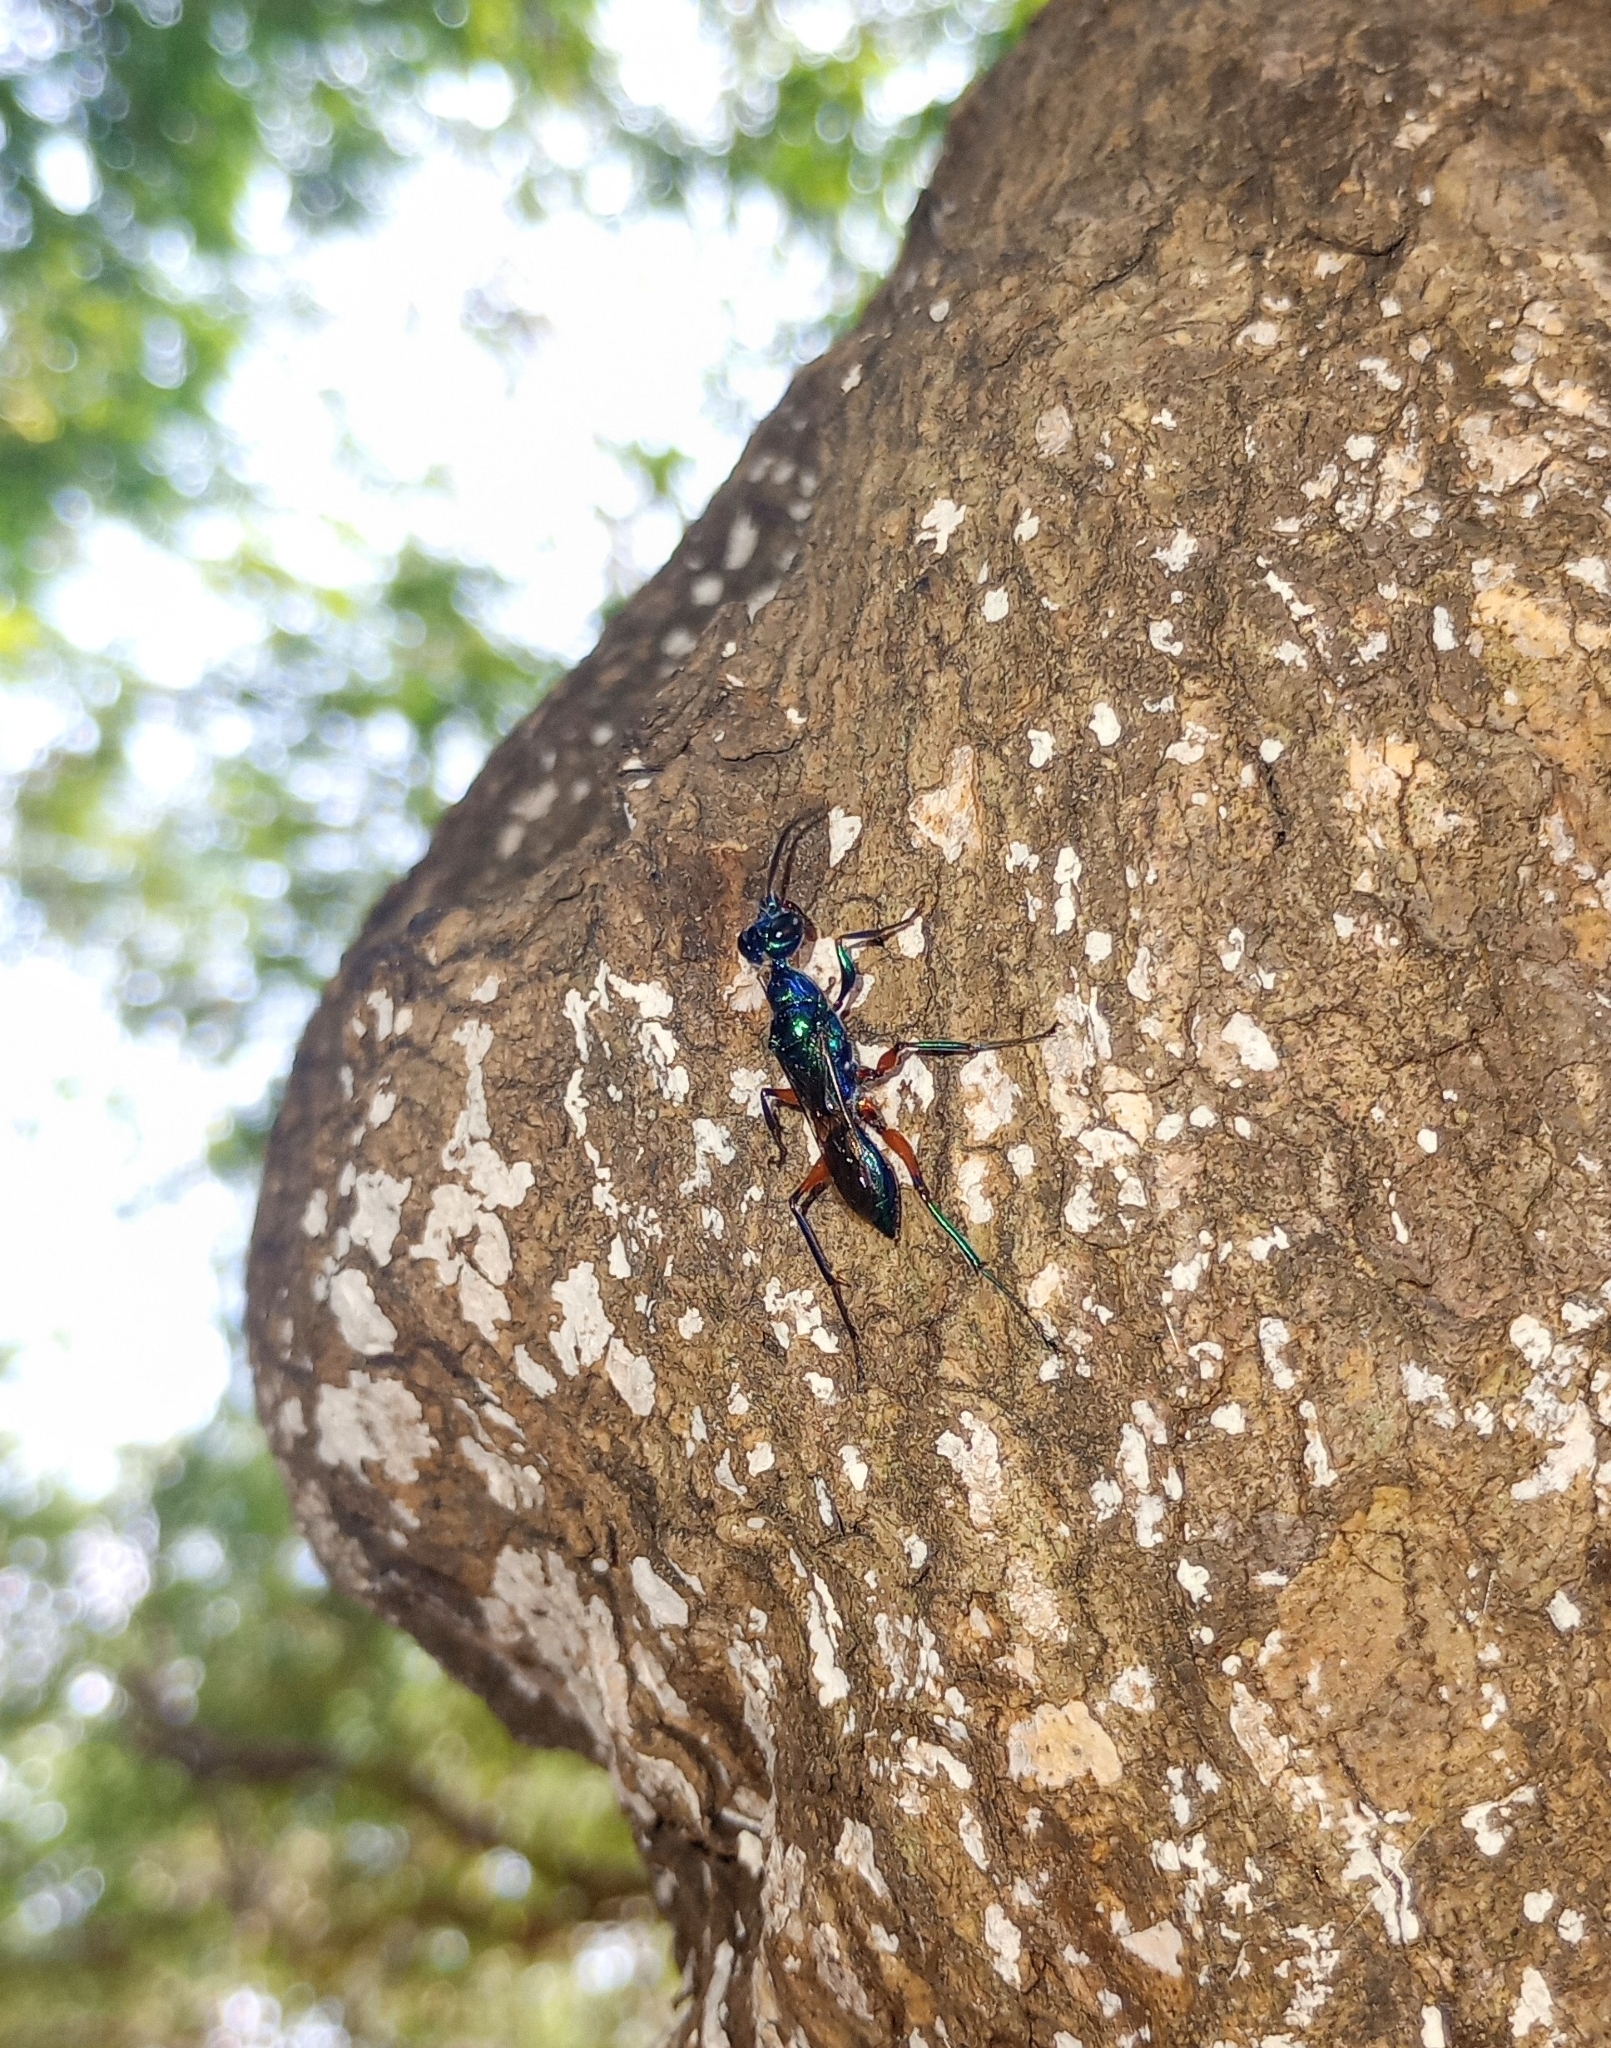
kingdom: Animalia
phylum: Arthropoda
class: Insecta
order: Hymenoptera
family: Ampulicidae
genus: Ampulex
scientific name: Ampulex compressa
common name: Emerald cockroach wasp
